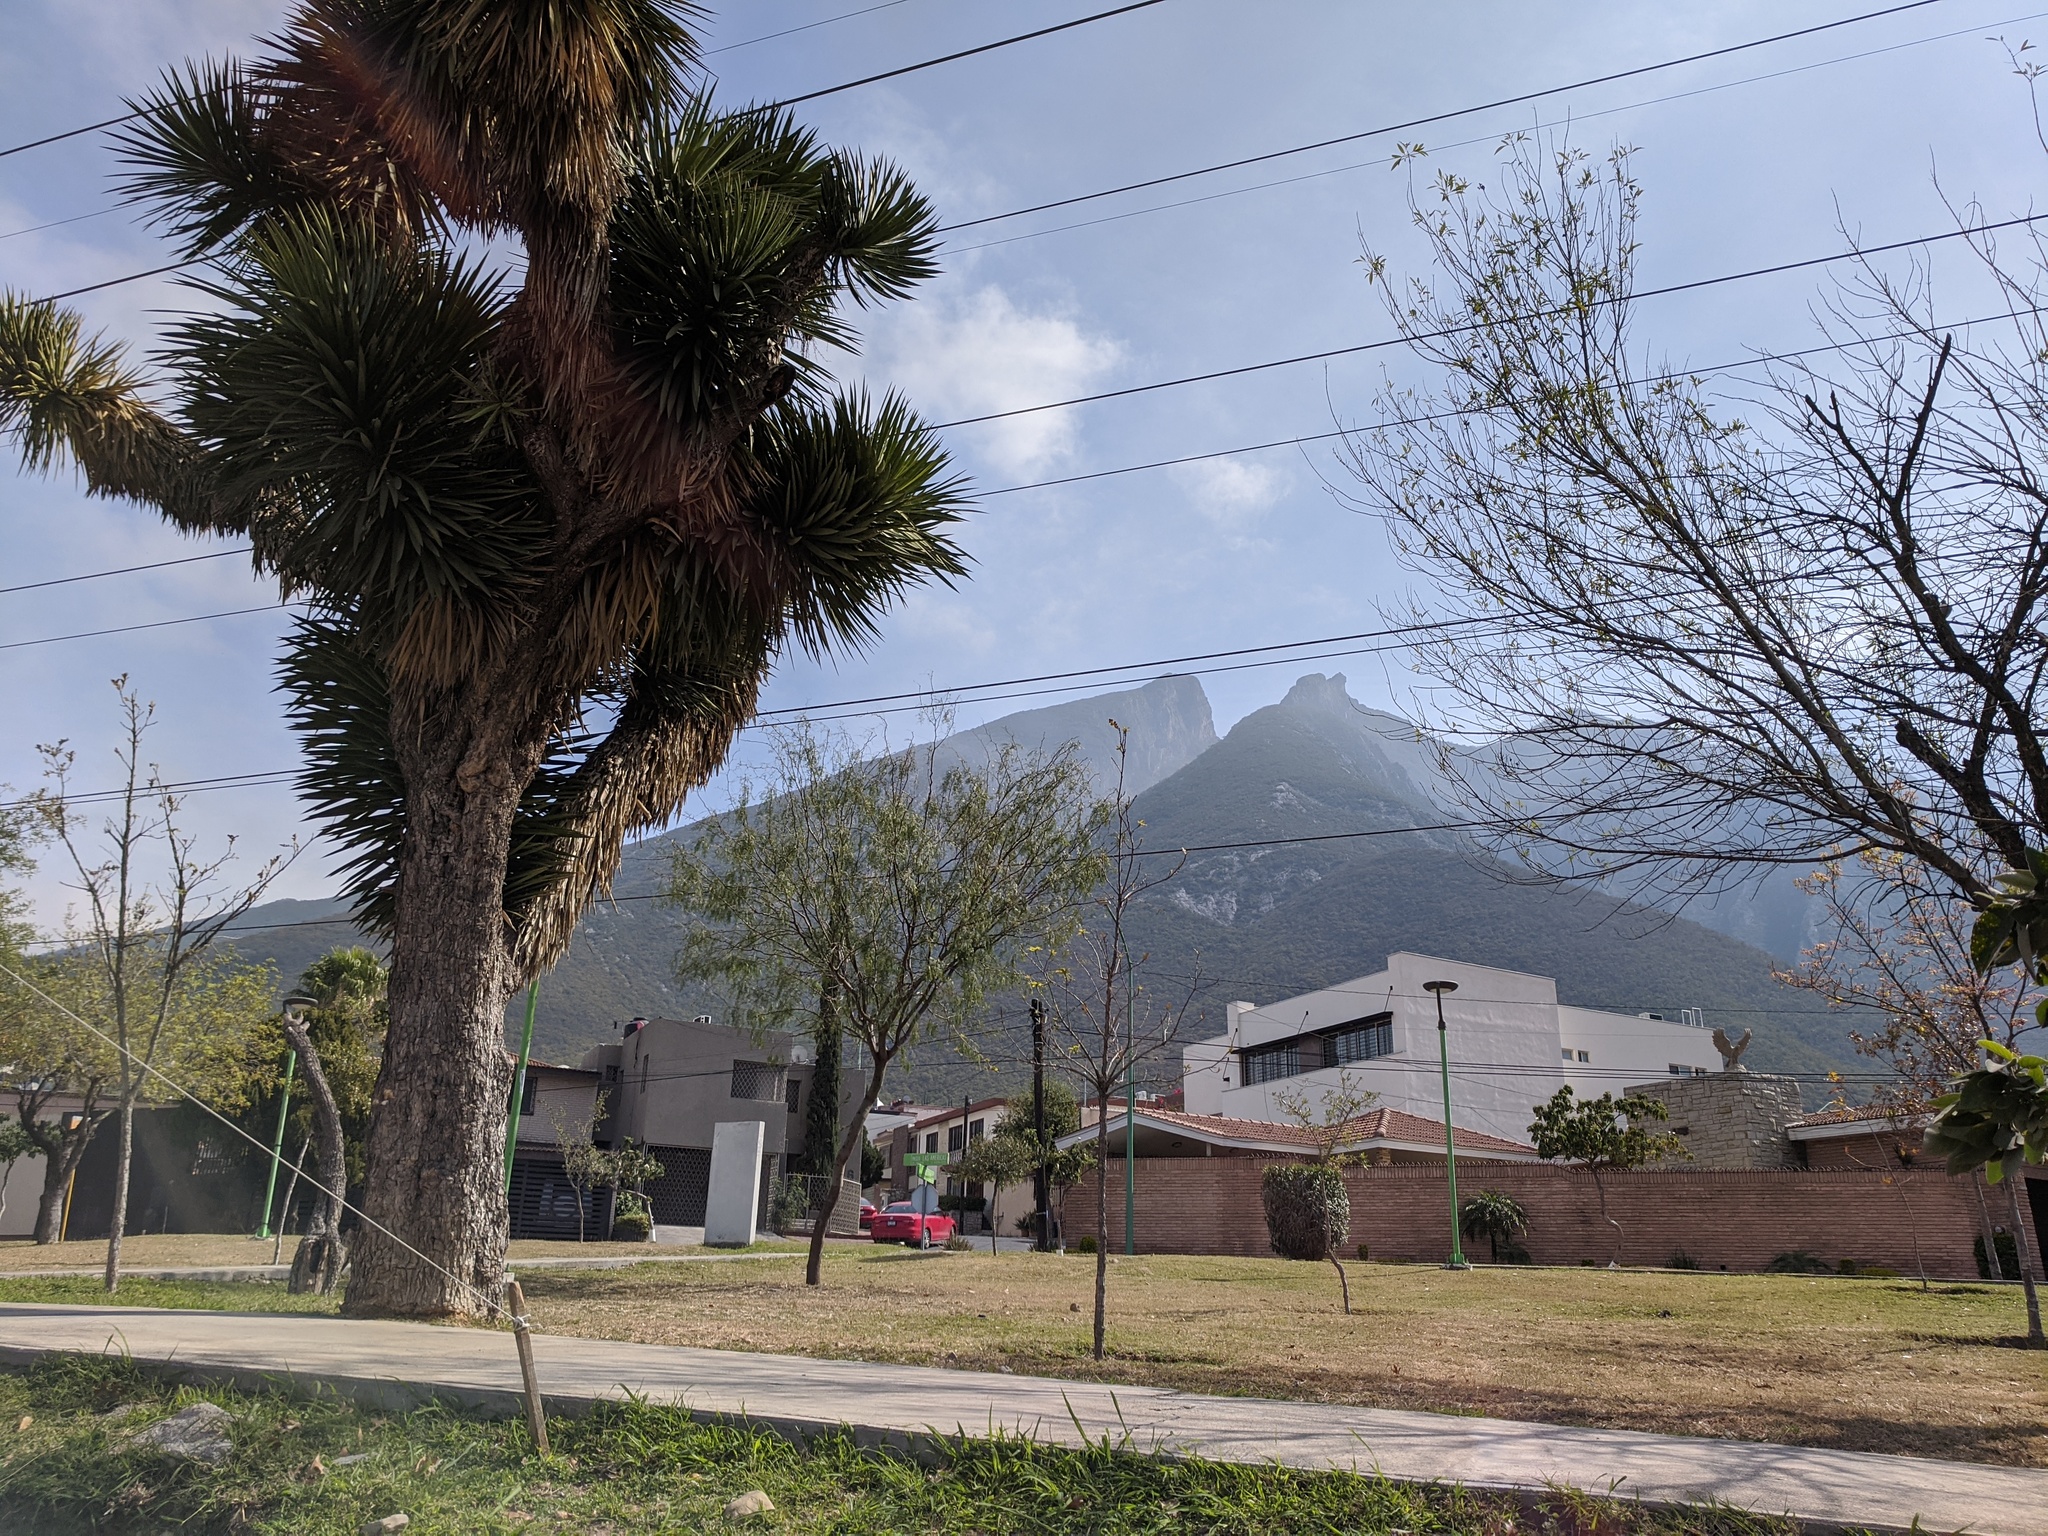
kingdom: Plantae
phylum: Tracheophyta
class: Liliopsida
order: Asparagales
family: Asparagaceae
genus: Yucca
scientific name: Yucca filifera
